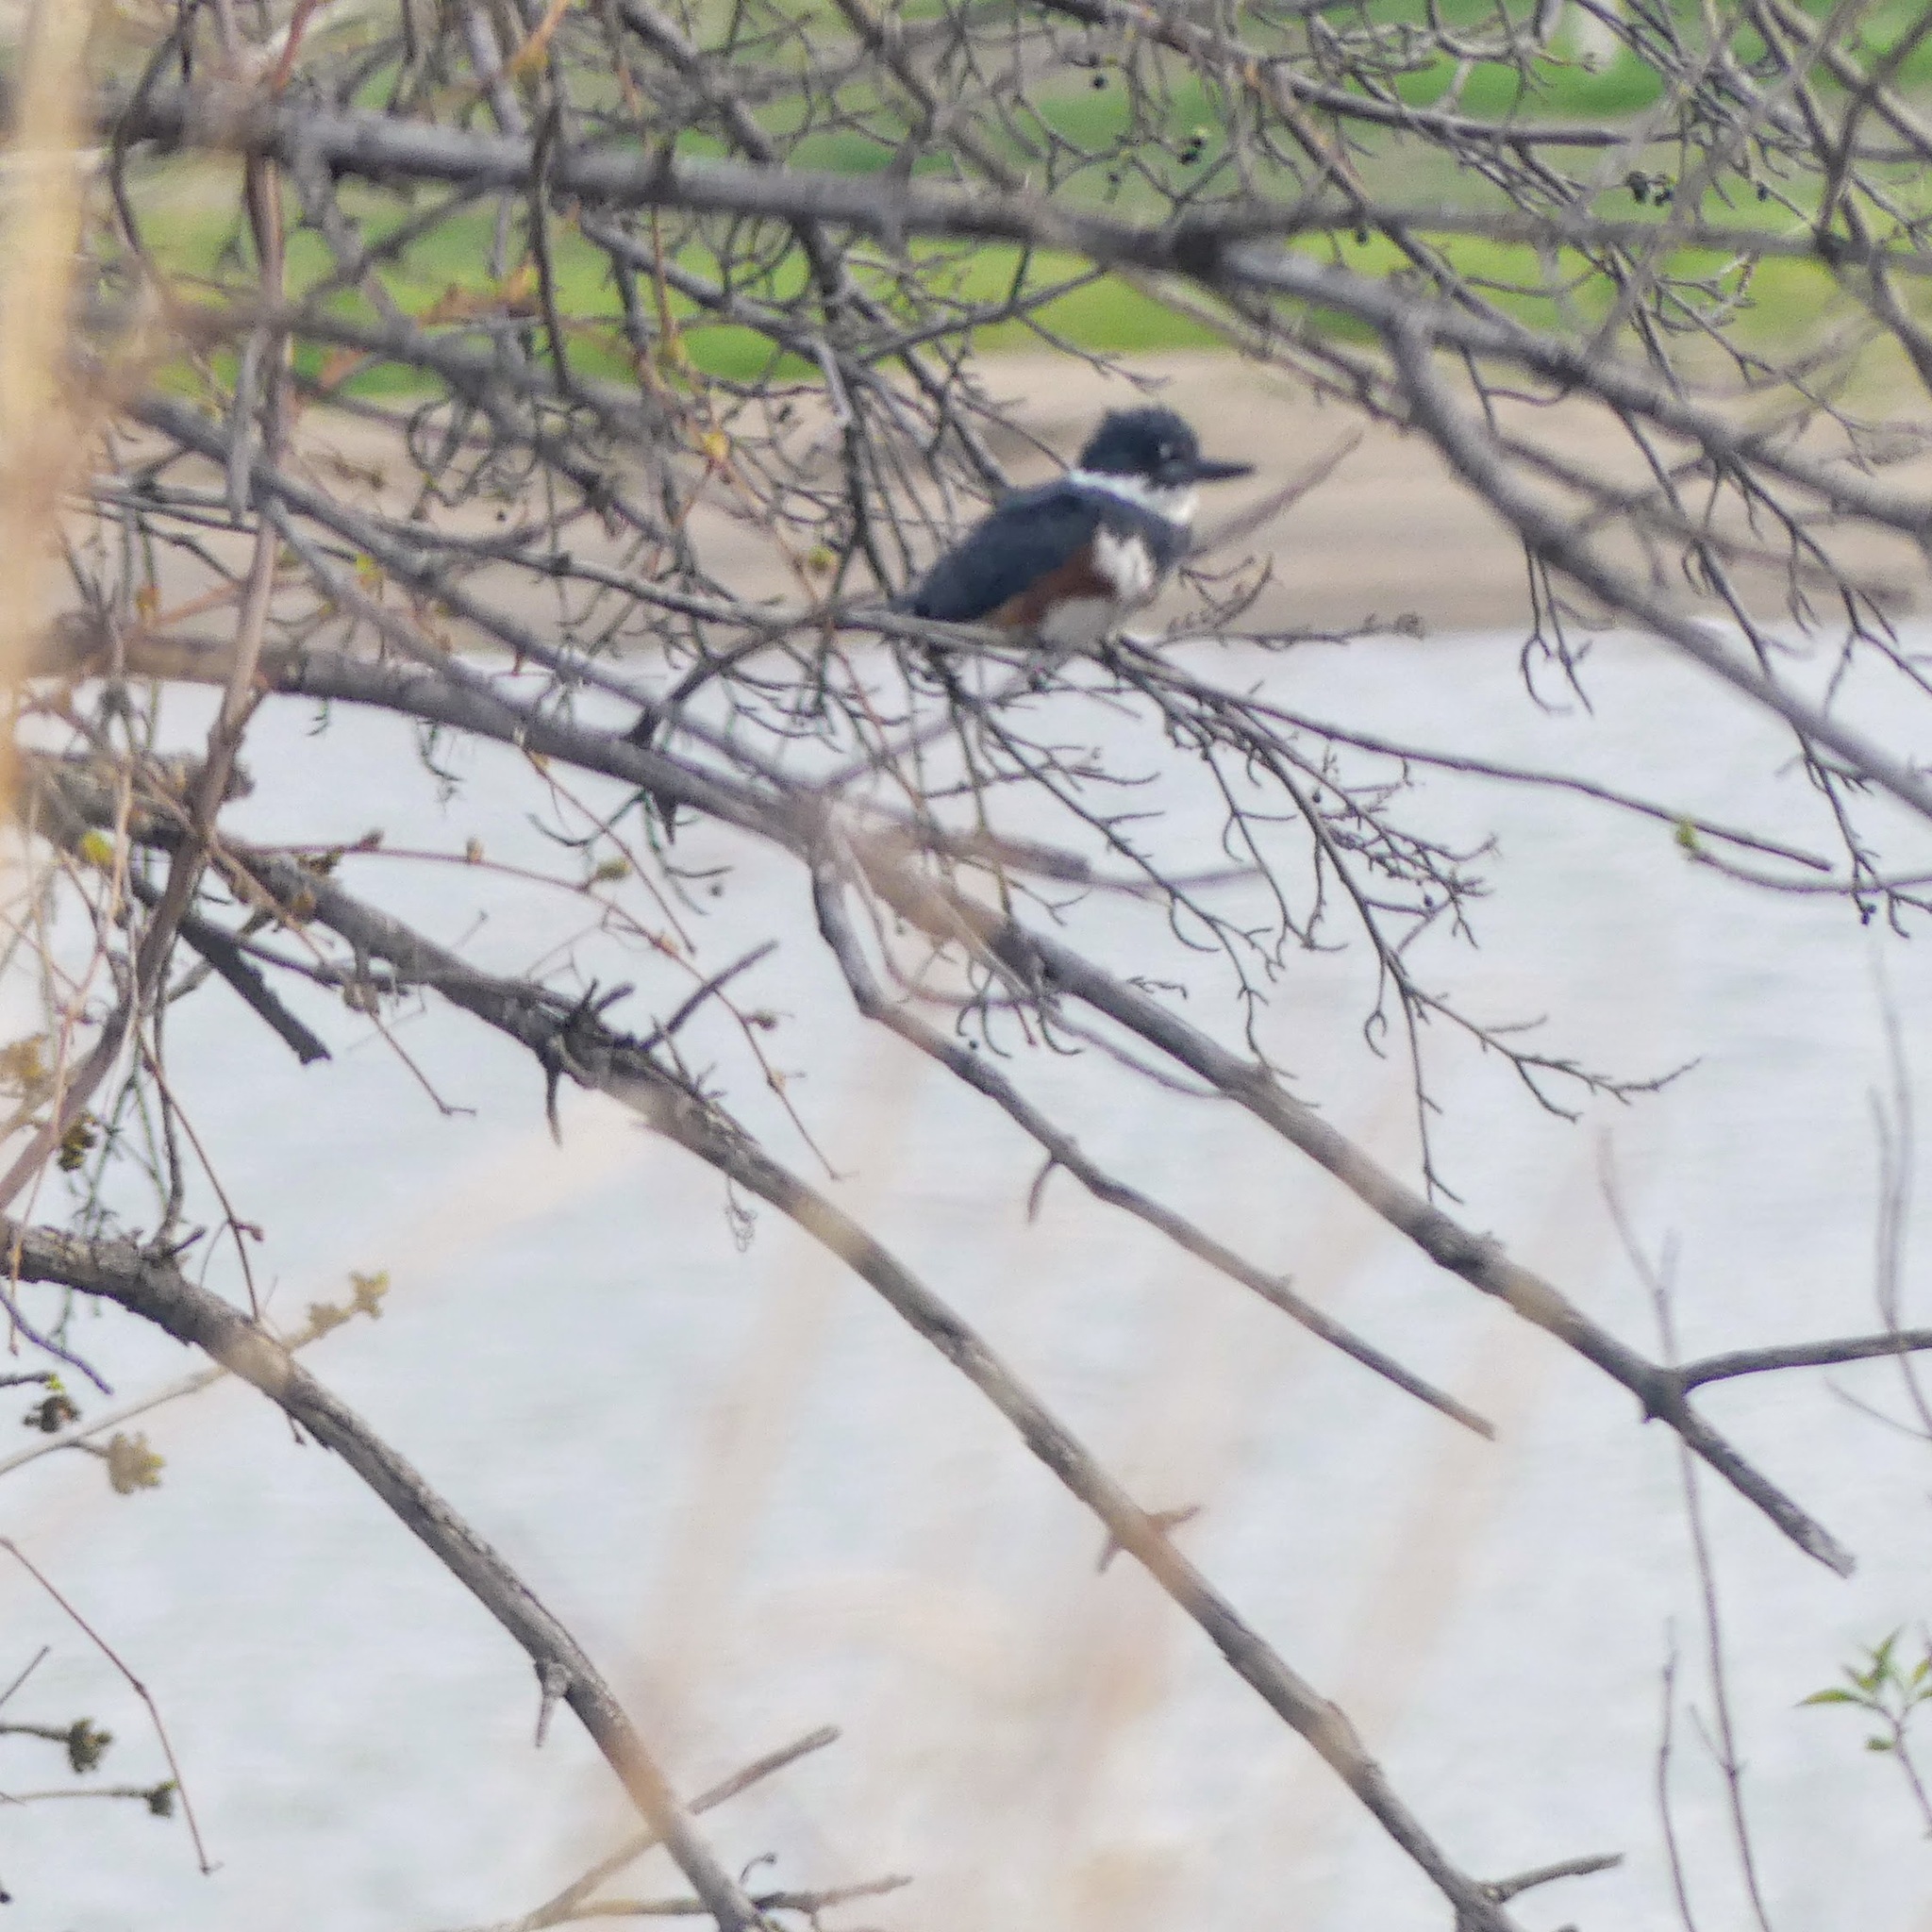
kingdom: Animalia
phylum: Chordata
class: Aves
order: Coraciiformes
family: Alcedinidae
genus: Megaceryle
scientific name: Megaceryle alcyon
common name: Belted kingfisher
